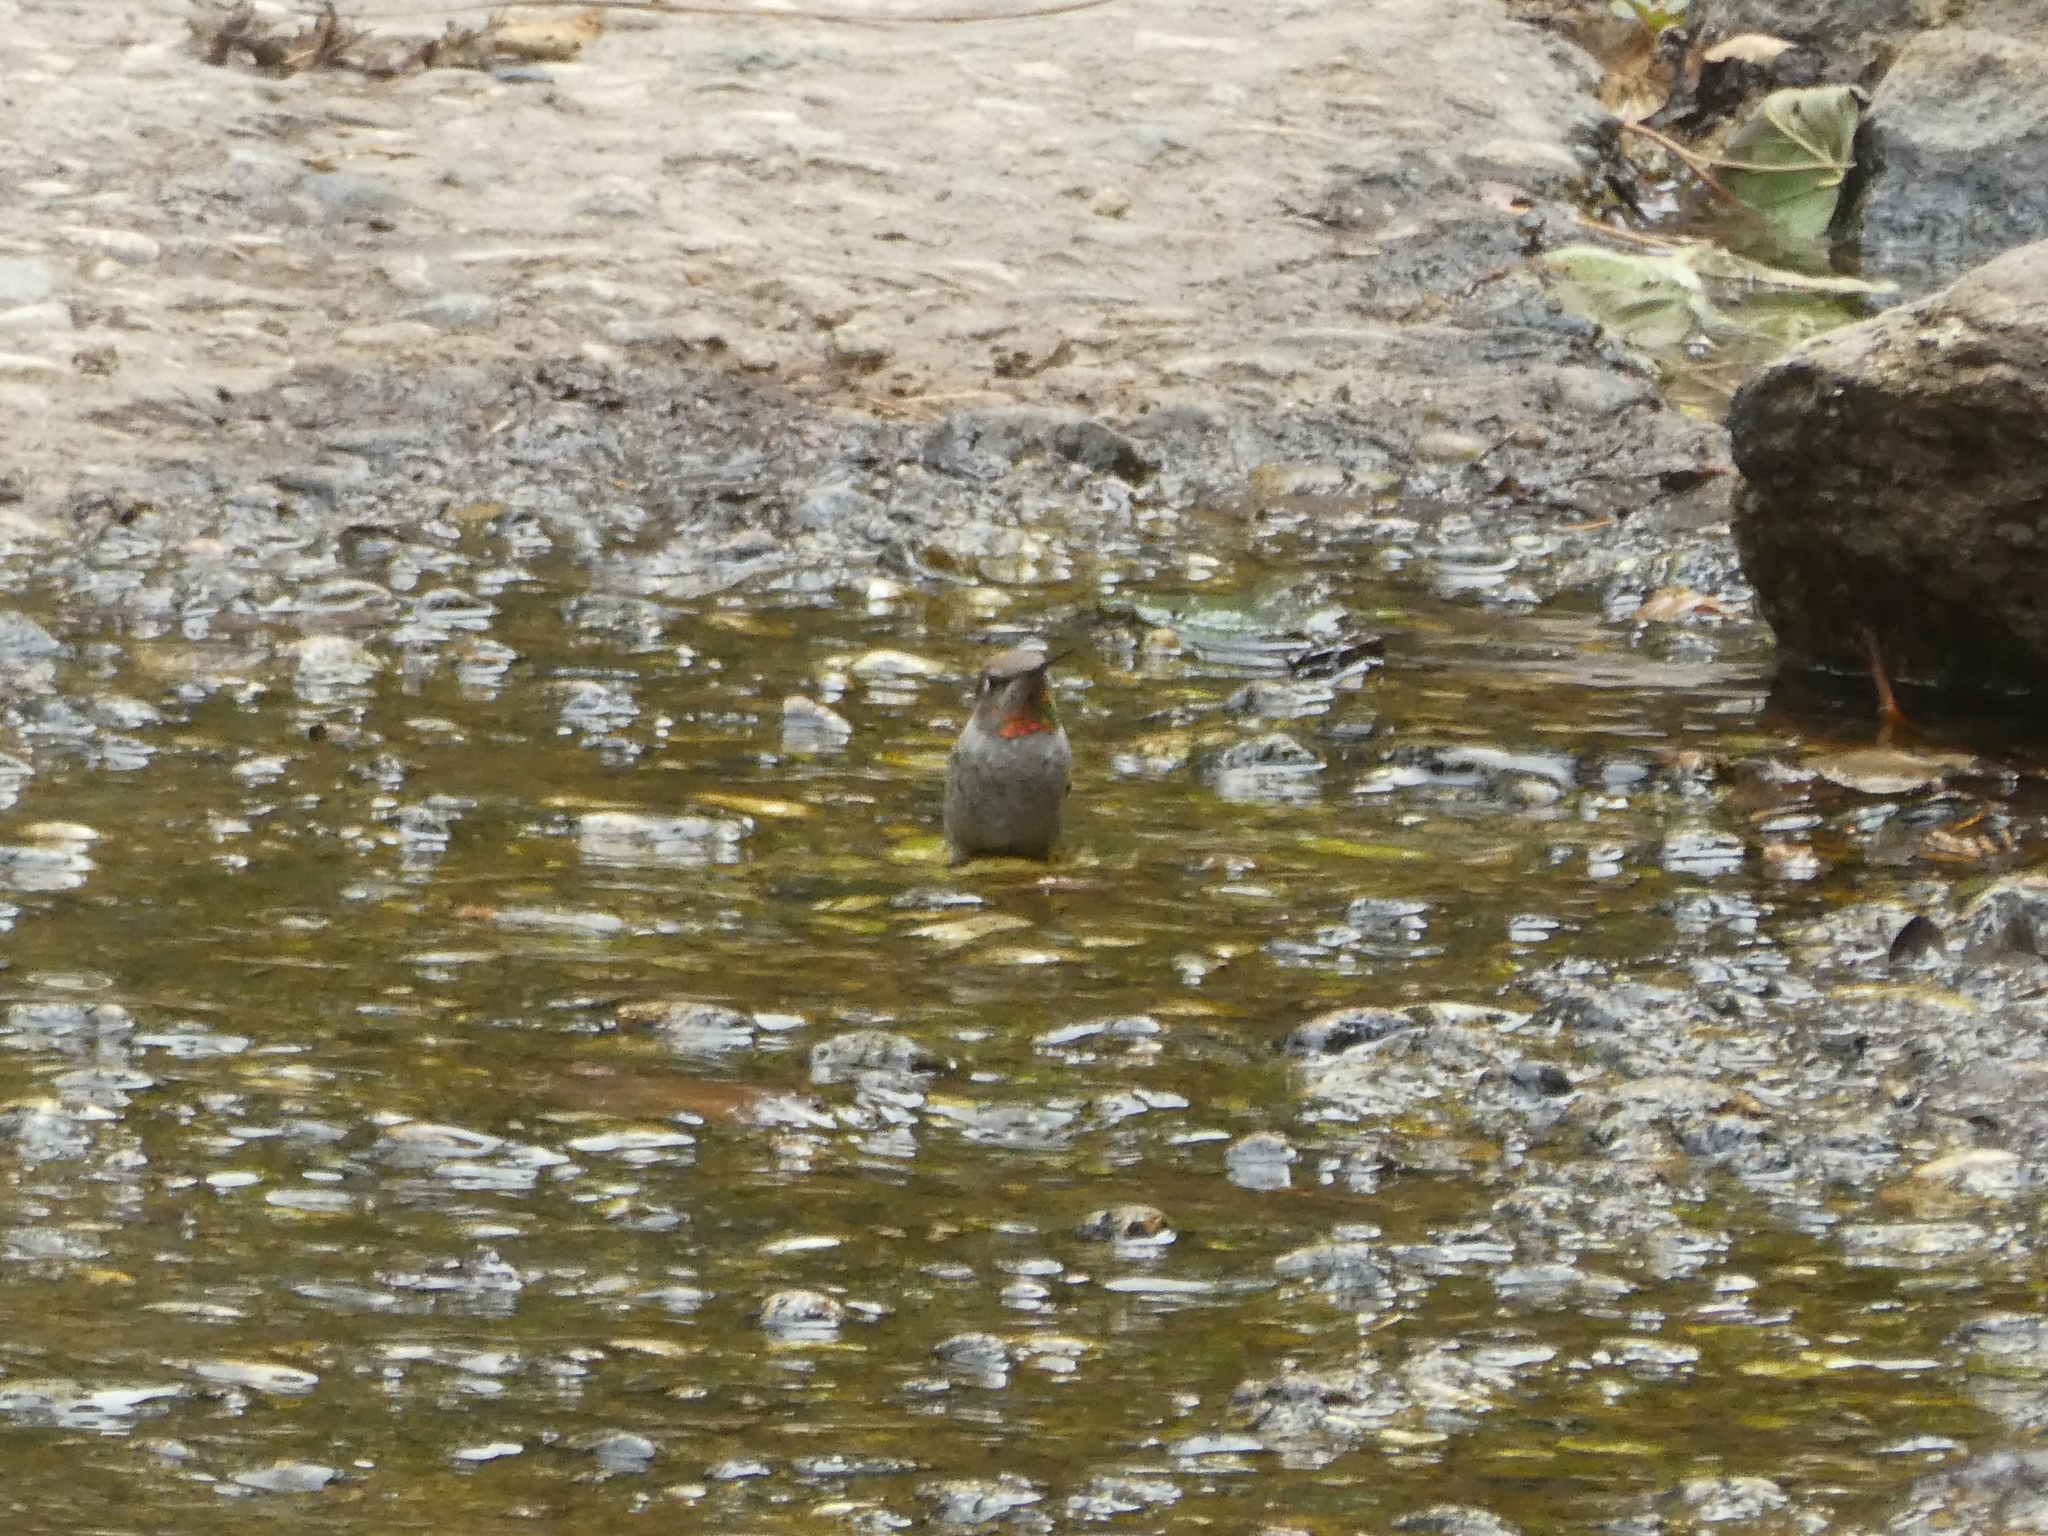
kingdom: Animalia
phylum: Chordata
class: Aves
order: Apodiformes
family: Trochilidae
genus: Calypte
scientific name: Calypte anna
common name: Anna's hummingbird
